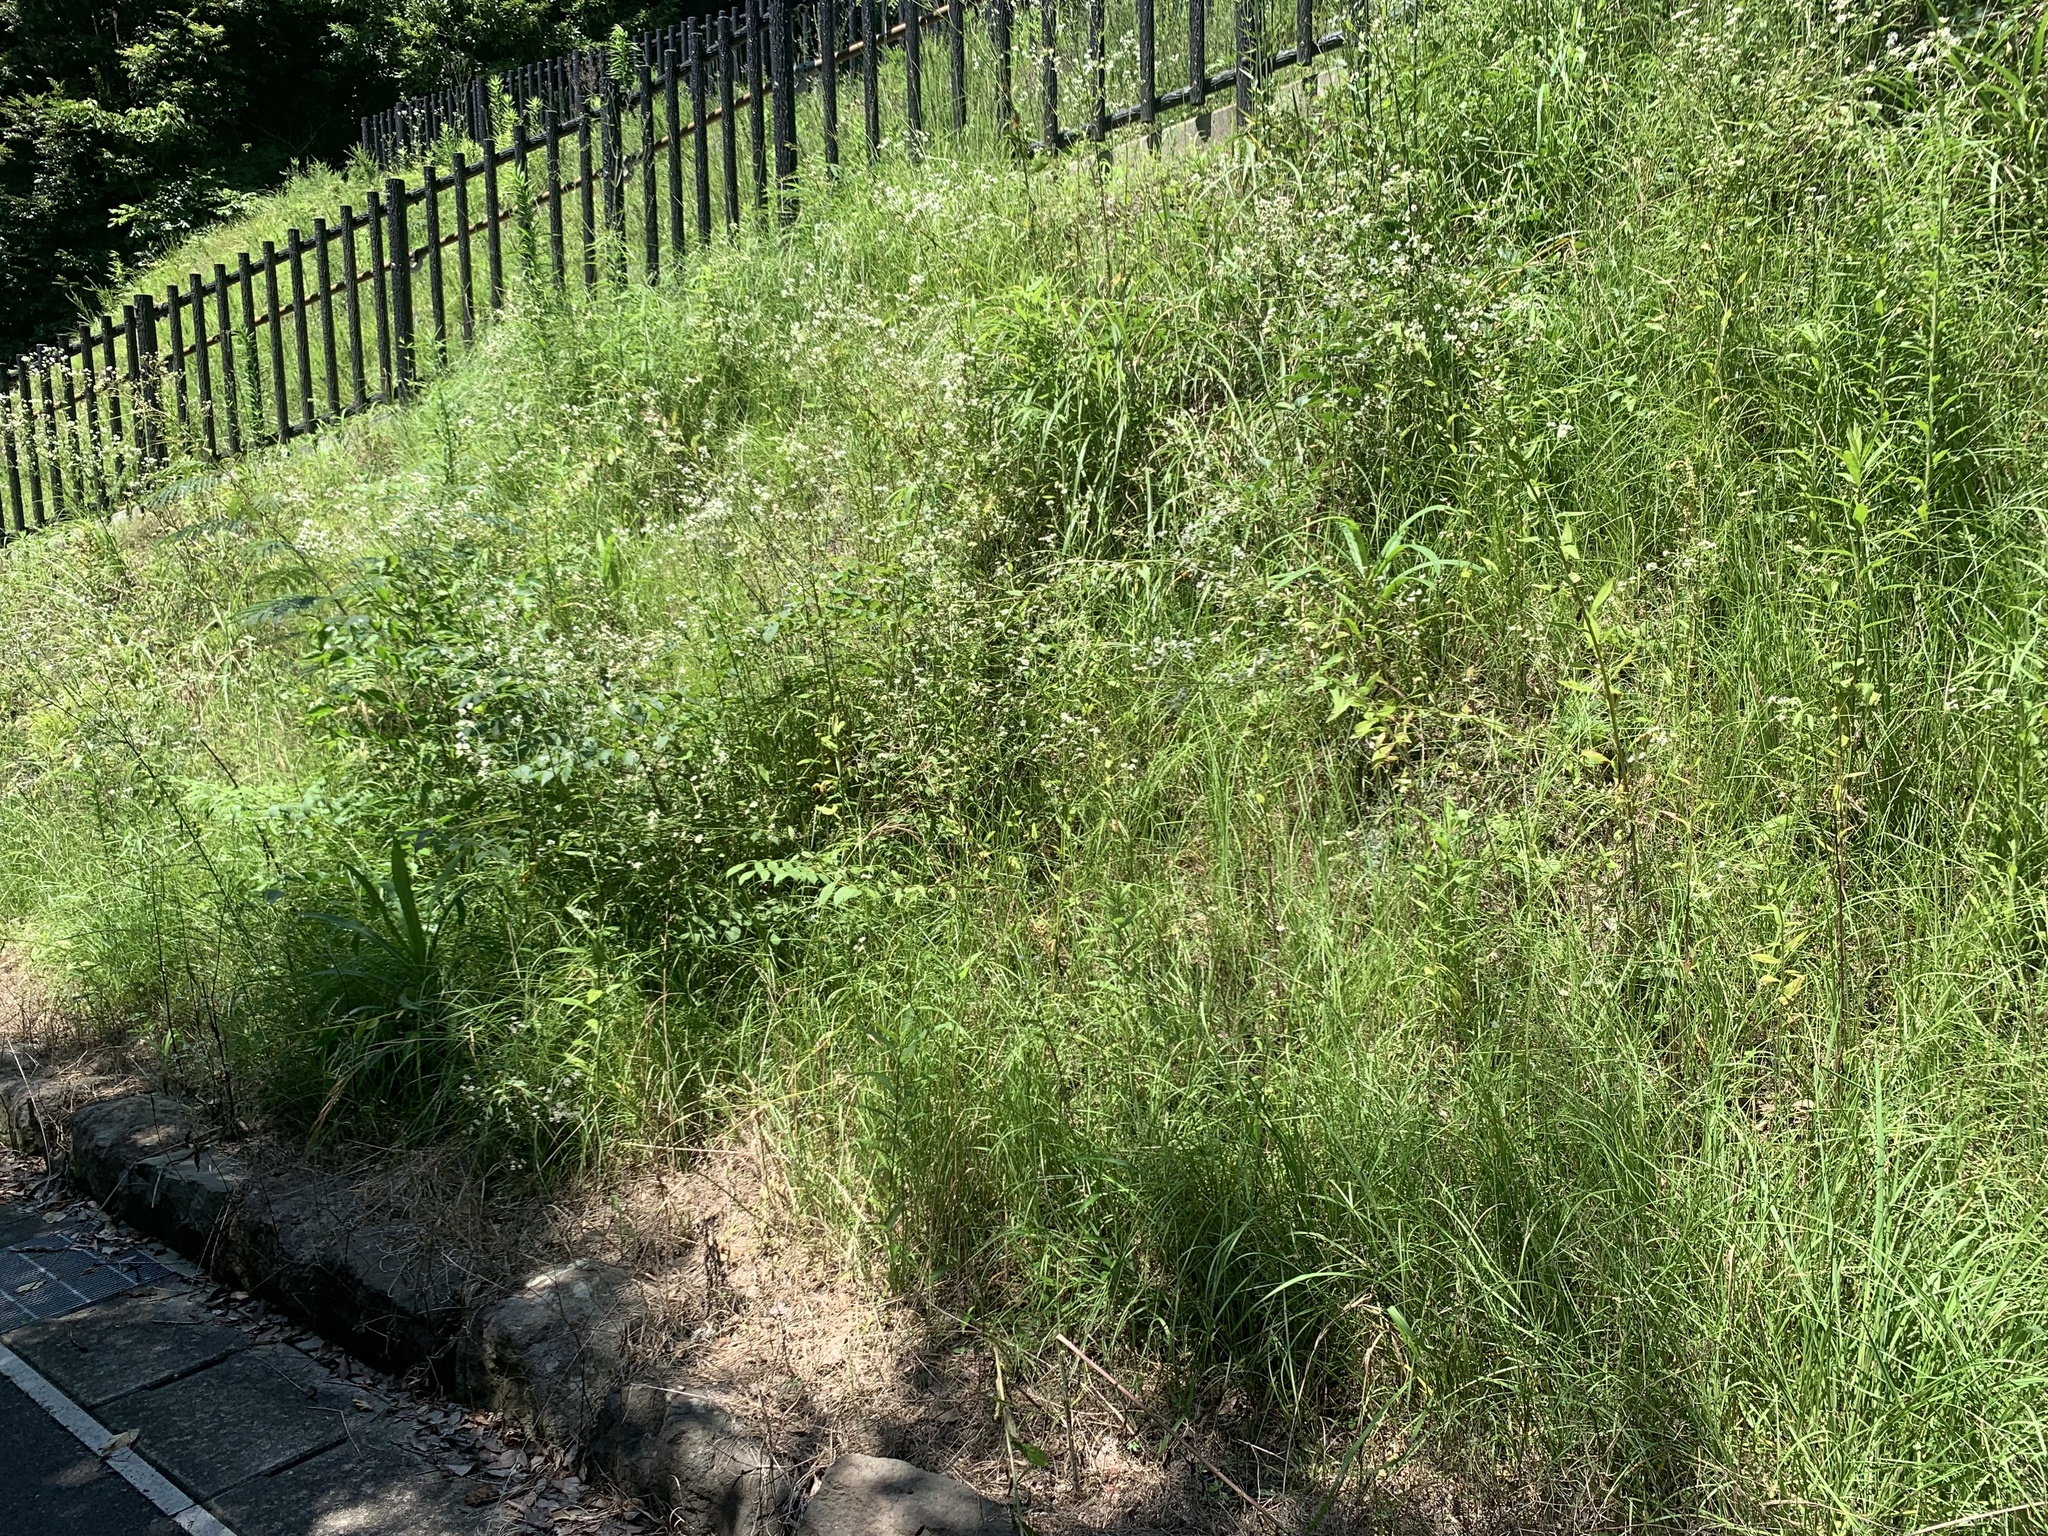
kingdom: Animalia
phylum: Arthropoda
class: Insecta
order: Orthoptera
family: Tettigoniidae
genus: Gampsocleis
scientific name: Gampsocleis buergeri
